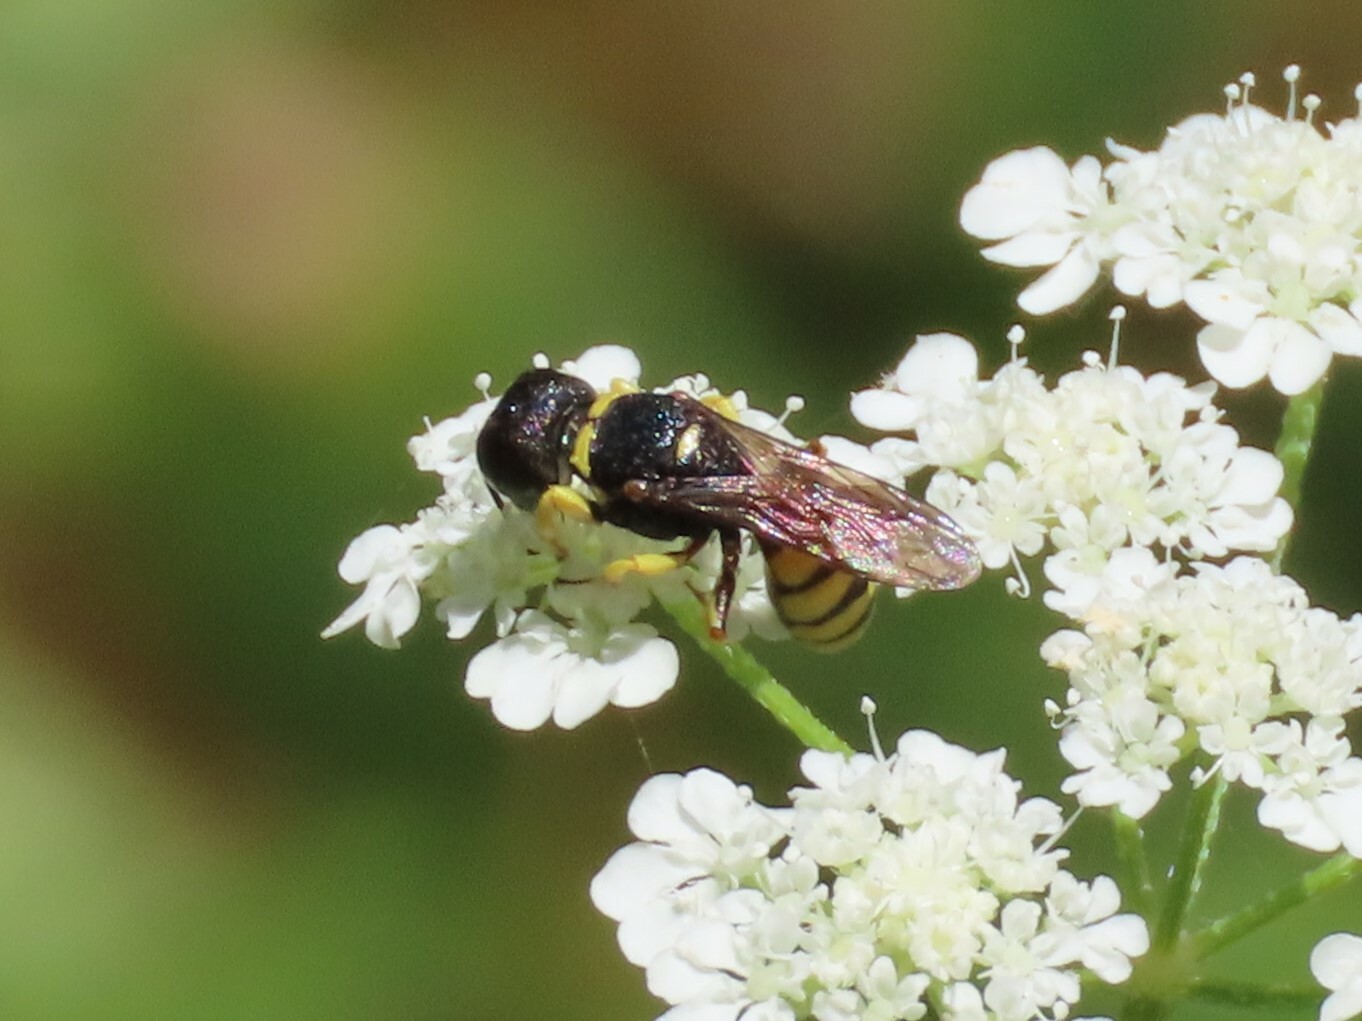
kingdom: Animalia
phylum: Arthropoda
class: Insecta
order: Hymenoptera
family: Crabronidae
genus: Lestica
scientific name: Lestica clypeata
